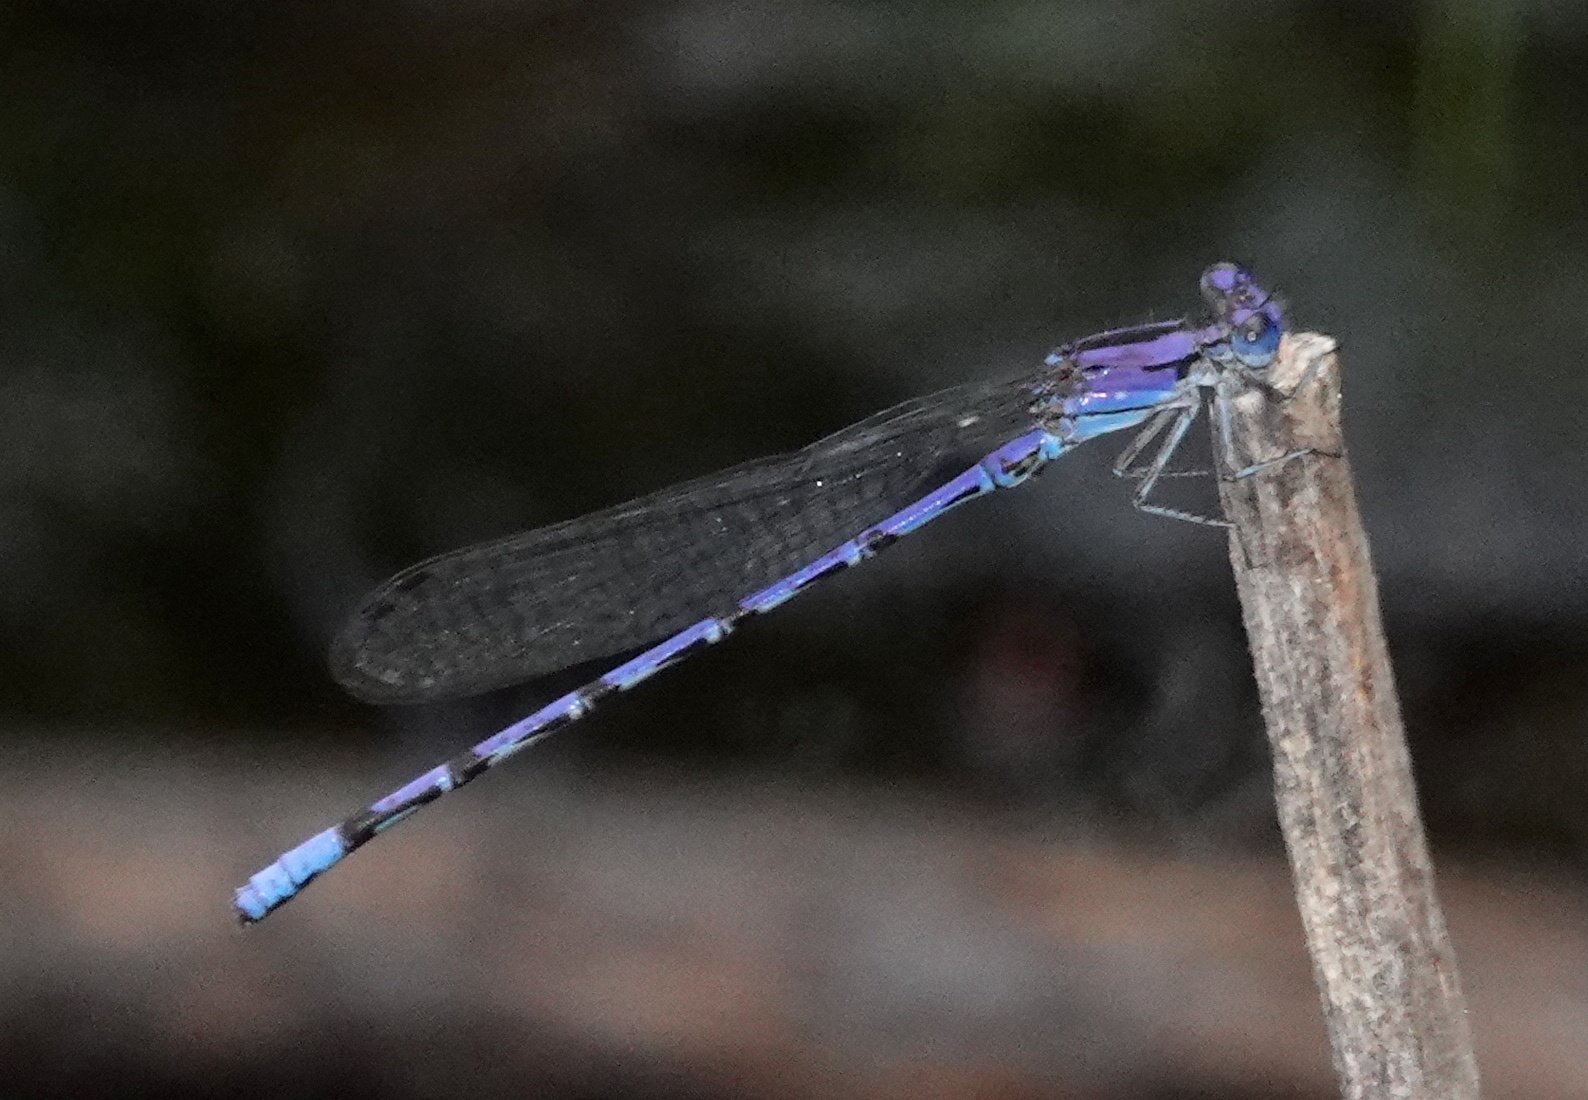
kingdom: Animalia
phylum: Arthropoda
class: Insecta
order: Odonata
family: Coenagrionidae
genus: Argia
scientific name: Argia extranea
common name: Spine-tipped dancer
